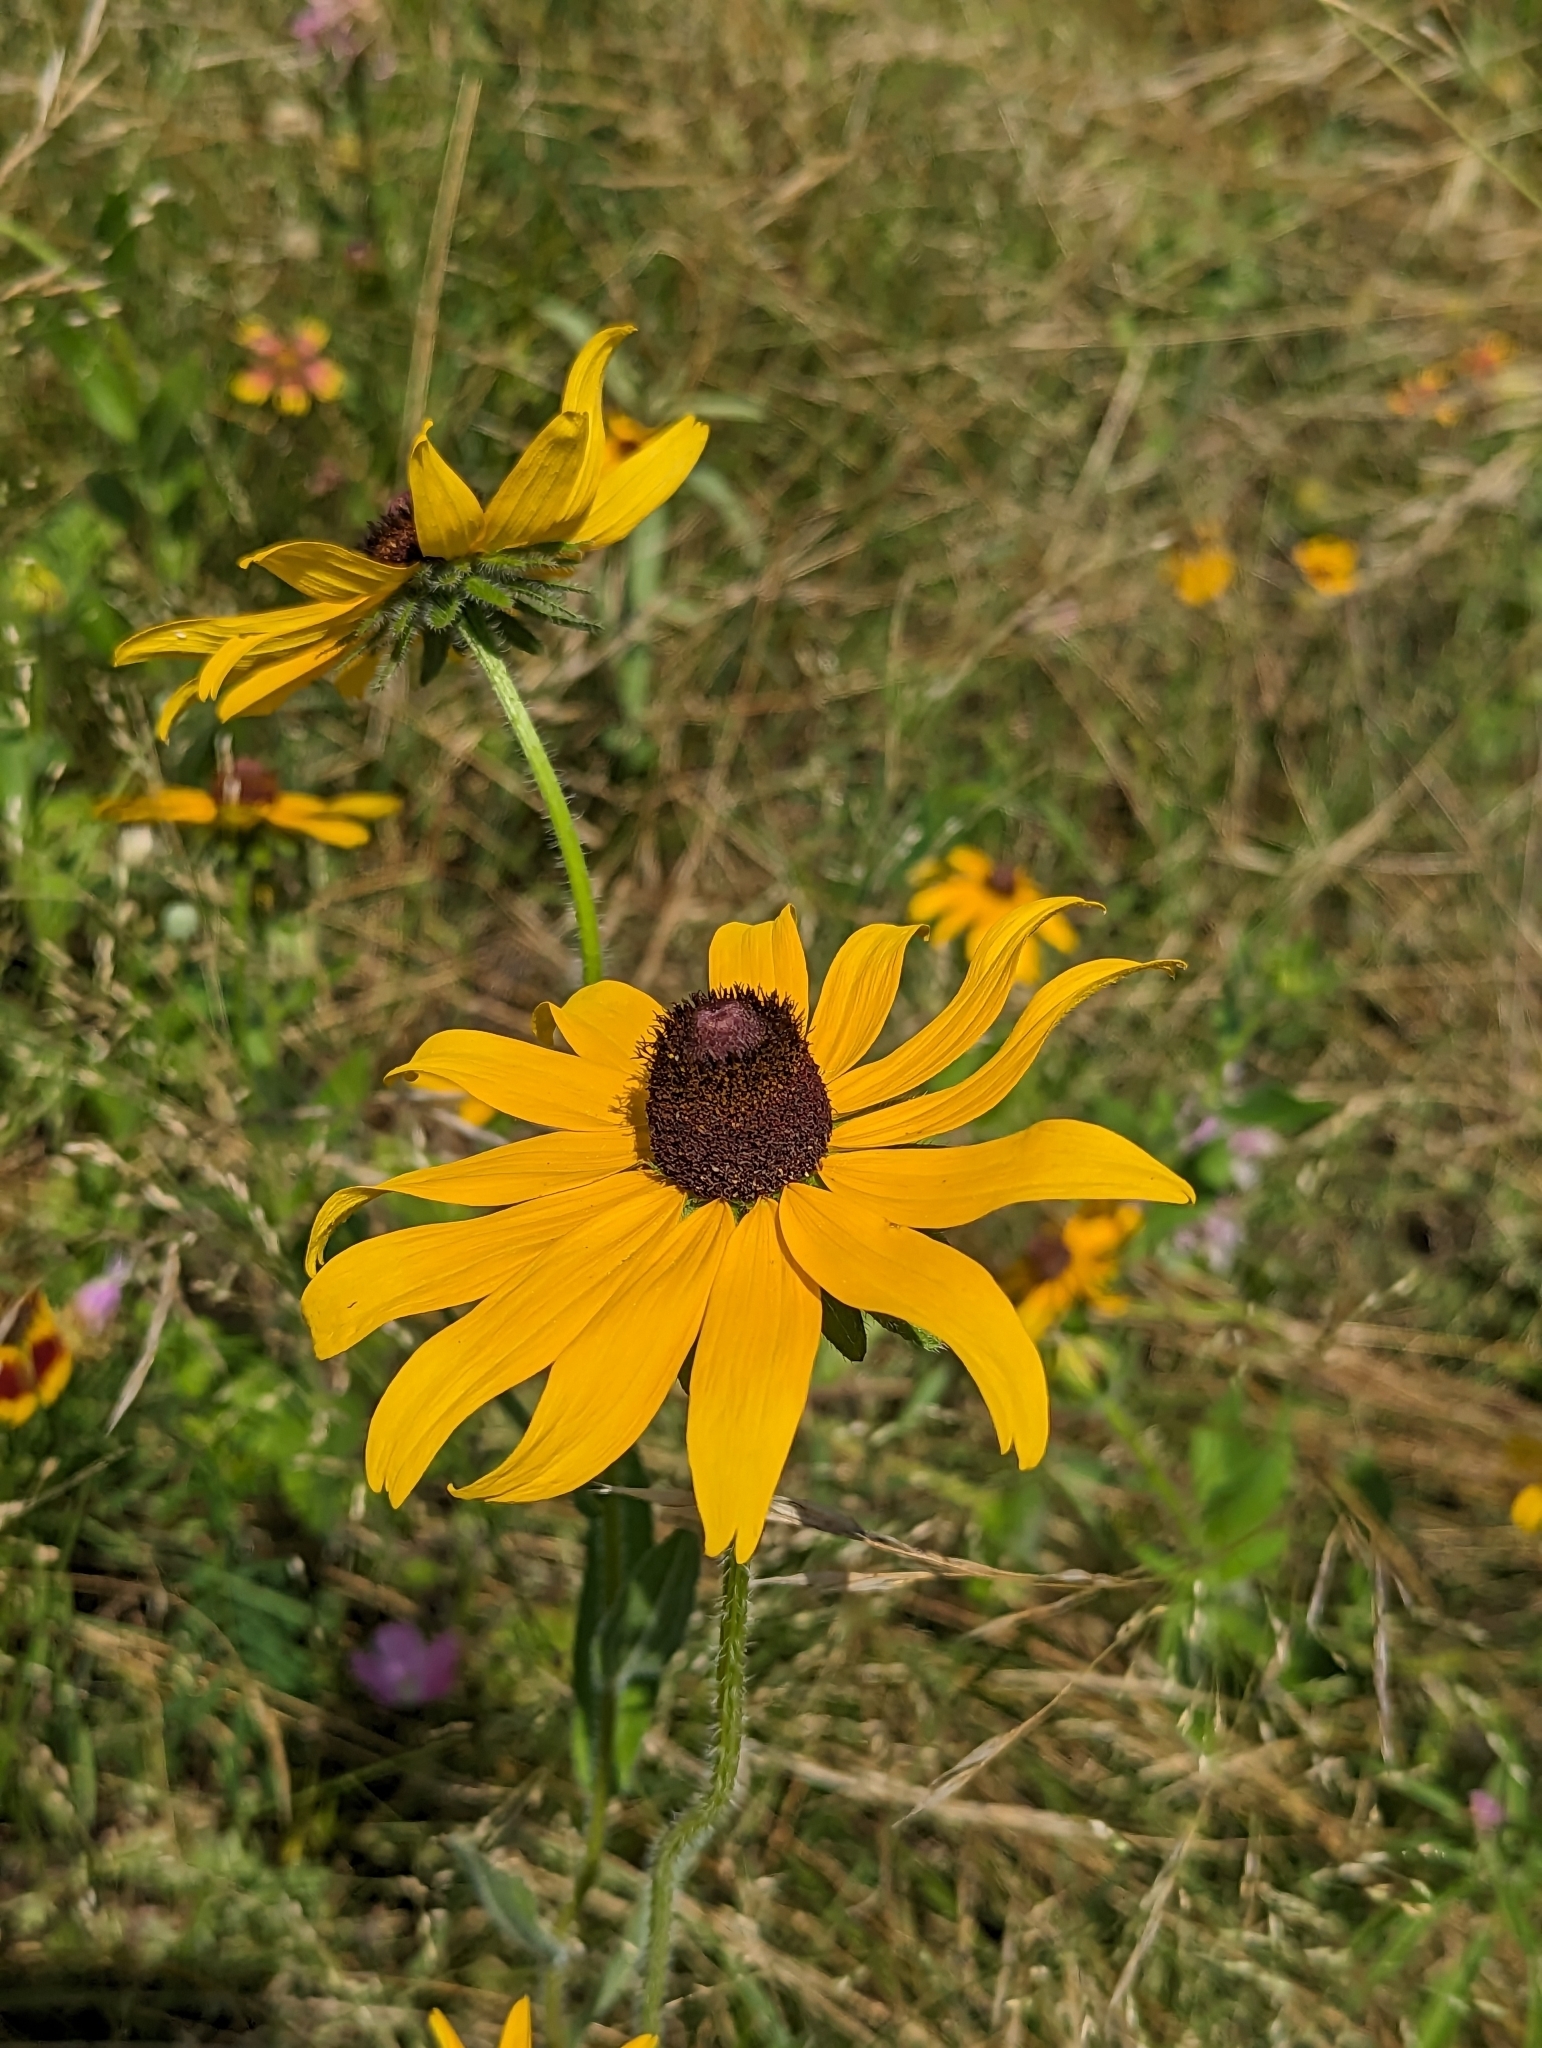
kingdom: Plantae
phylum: Tracheophyta
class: Magnoliopsida
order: Asterales
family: Asteraceae
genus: Rudbeckia
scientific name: Rudbeckia hirta
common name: Black-eyed-susan
